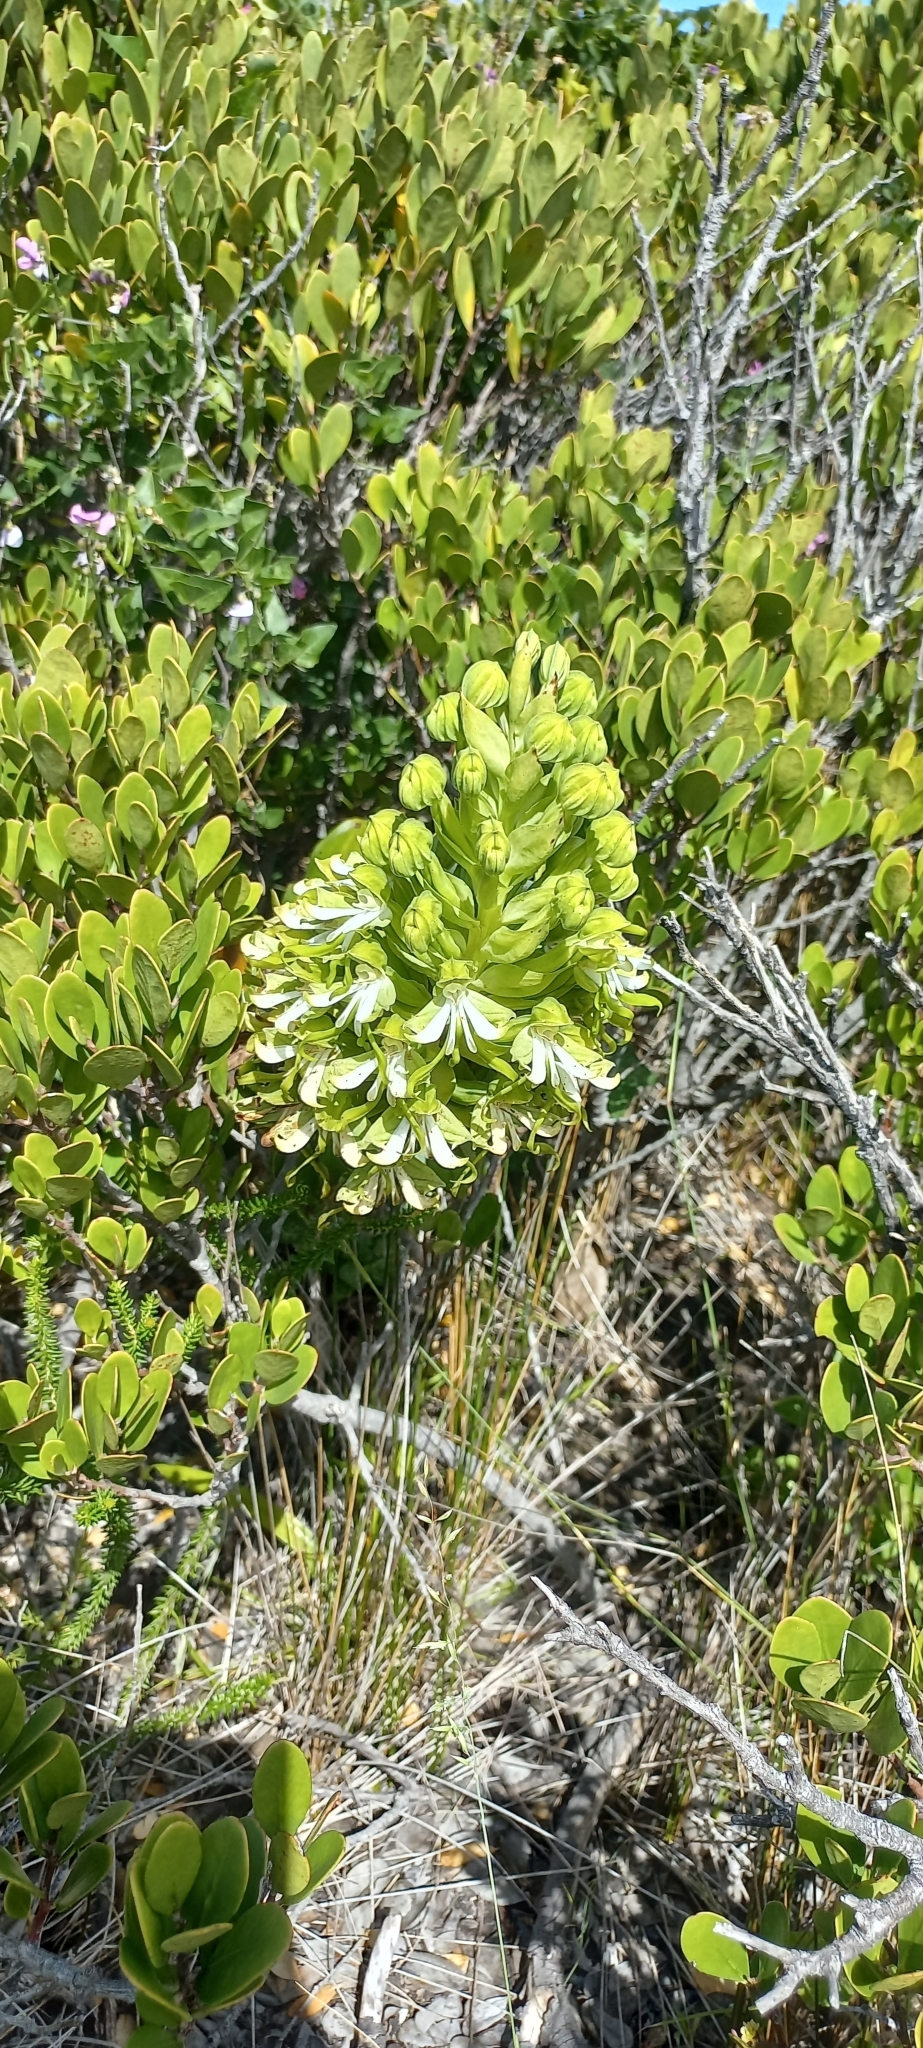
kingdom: Plantae
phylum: Tracheophyta
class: Liliopsida
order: Asparagales
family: Orchidaceae
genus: Bonatea
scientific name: Bonatea speciosa
